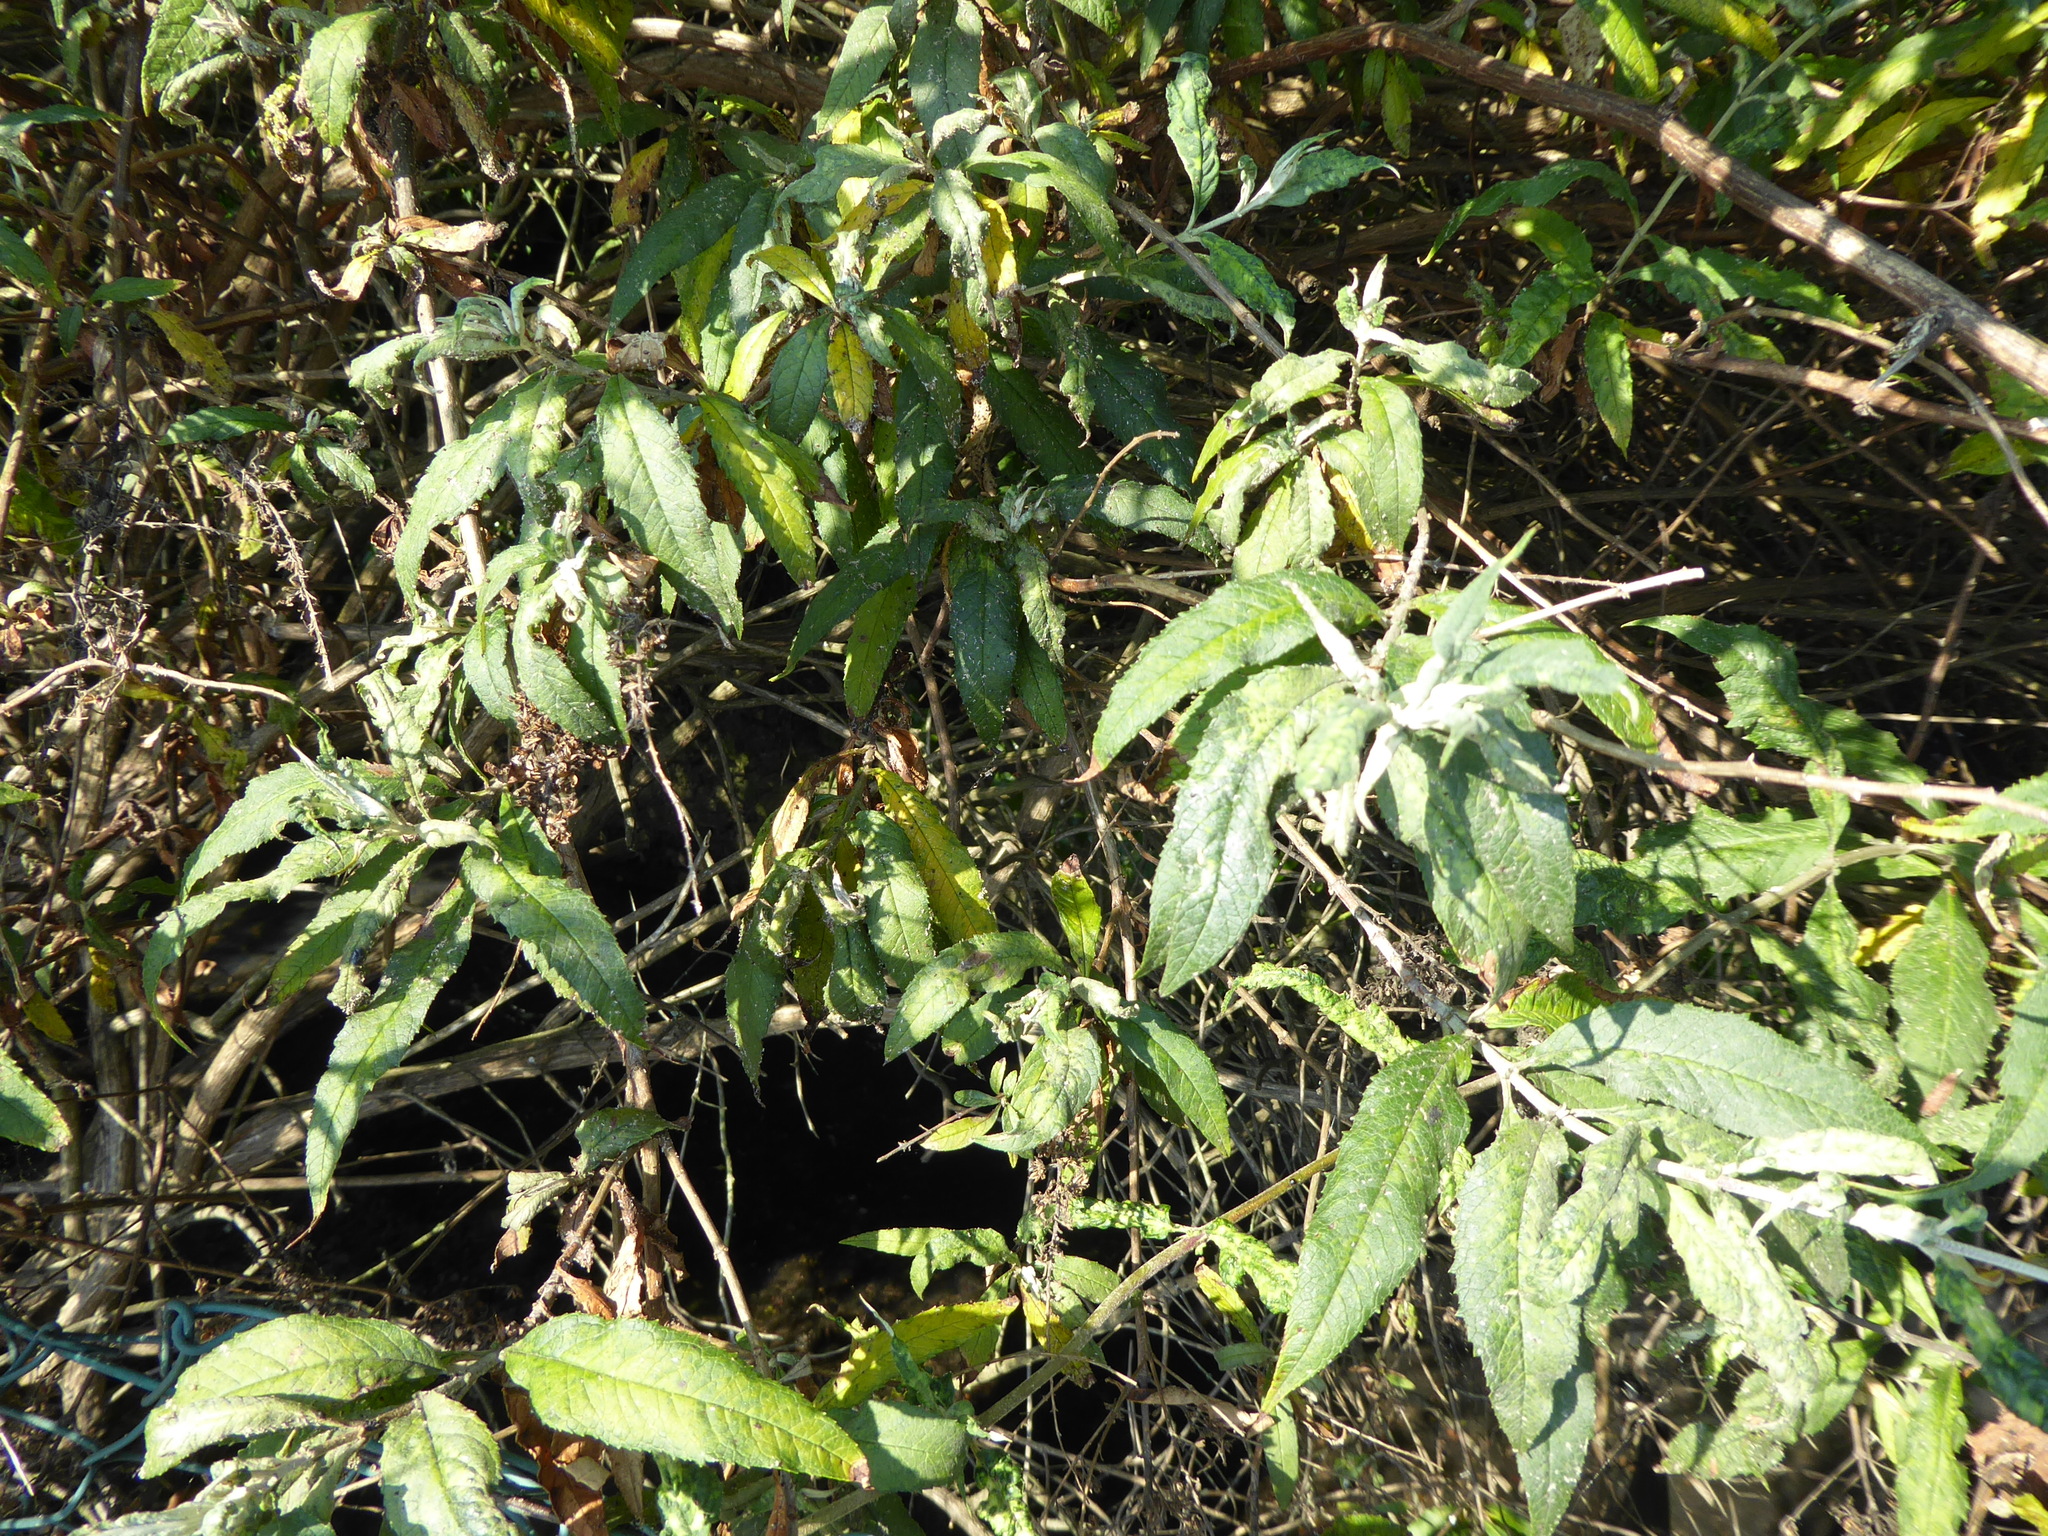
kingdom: Plantae
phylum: Tracheophyta
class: Magnoliopsida
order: Lamiales
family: Scrophulariaceae
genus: Buddleja
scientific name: Buddleja davidii
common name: Butterfly-bush
